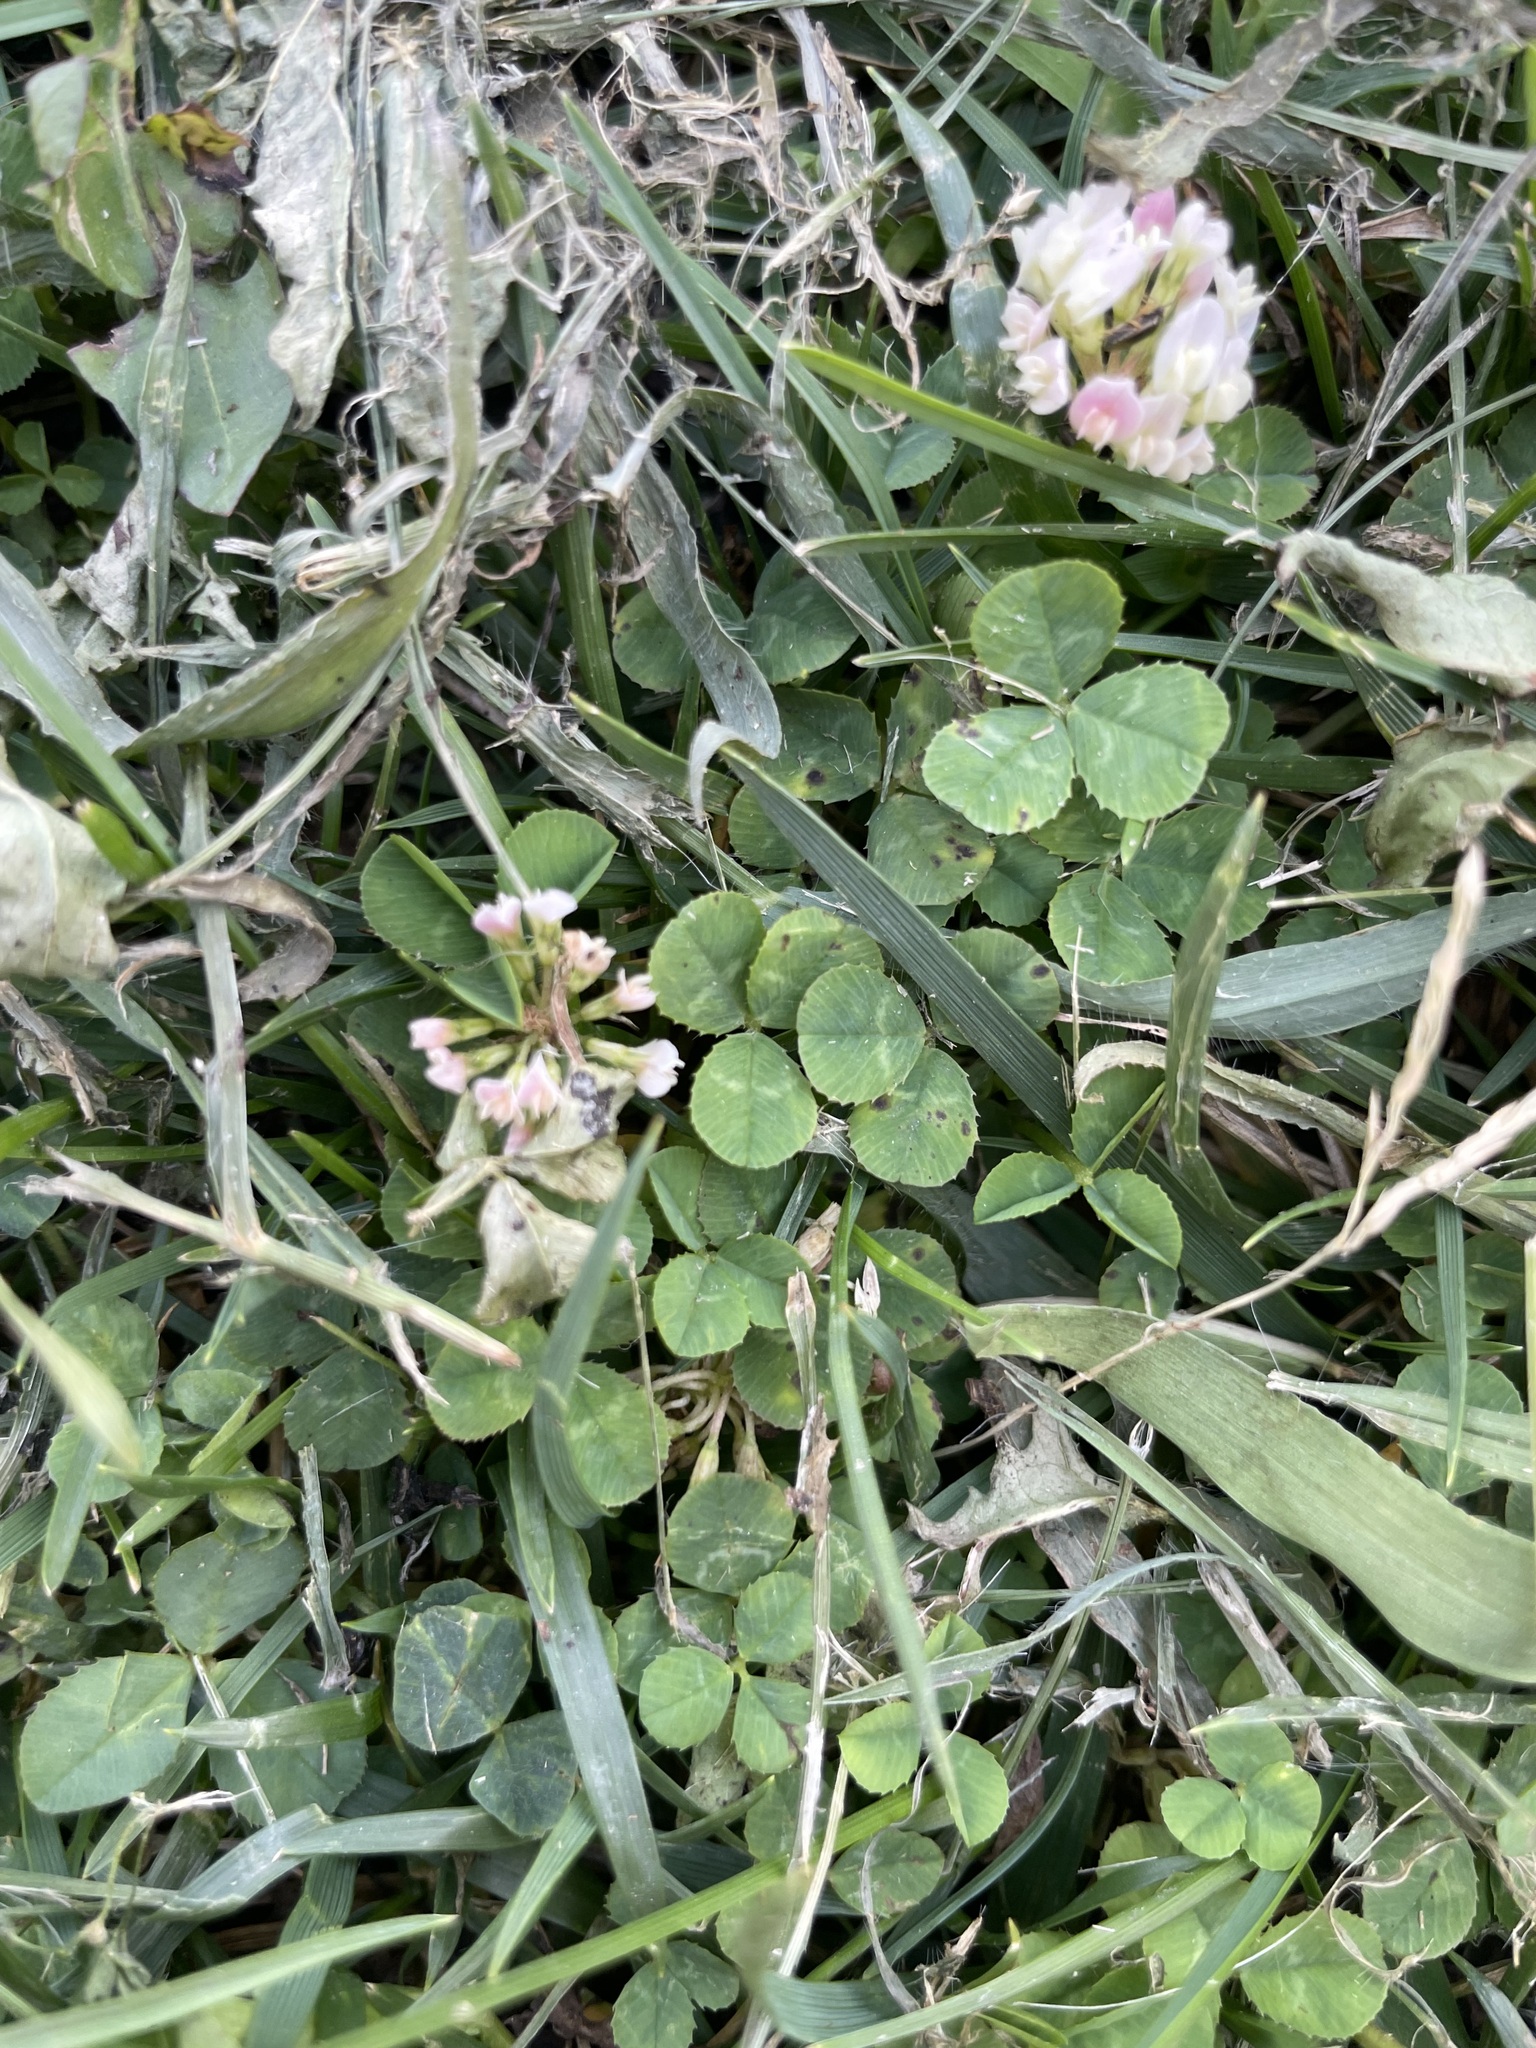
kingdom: Plantae
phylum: Tracheophyta
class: Magnoliopsida
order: Fabales
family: Fabaceae
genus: Trifolium
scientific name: Trifolium repens
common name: White clover
